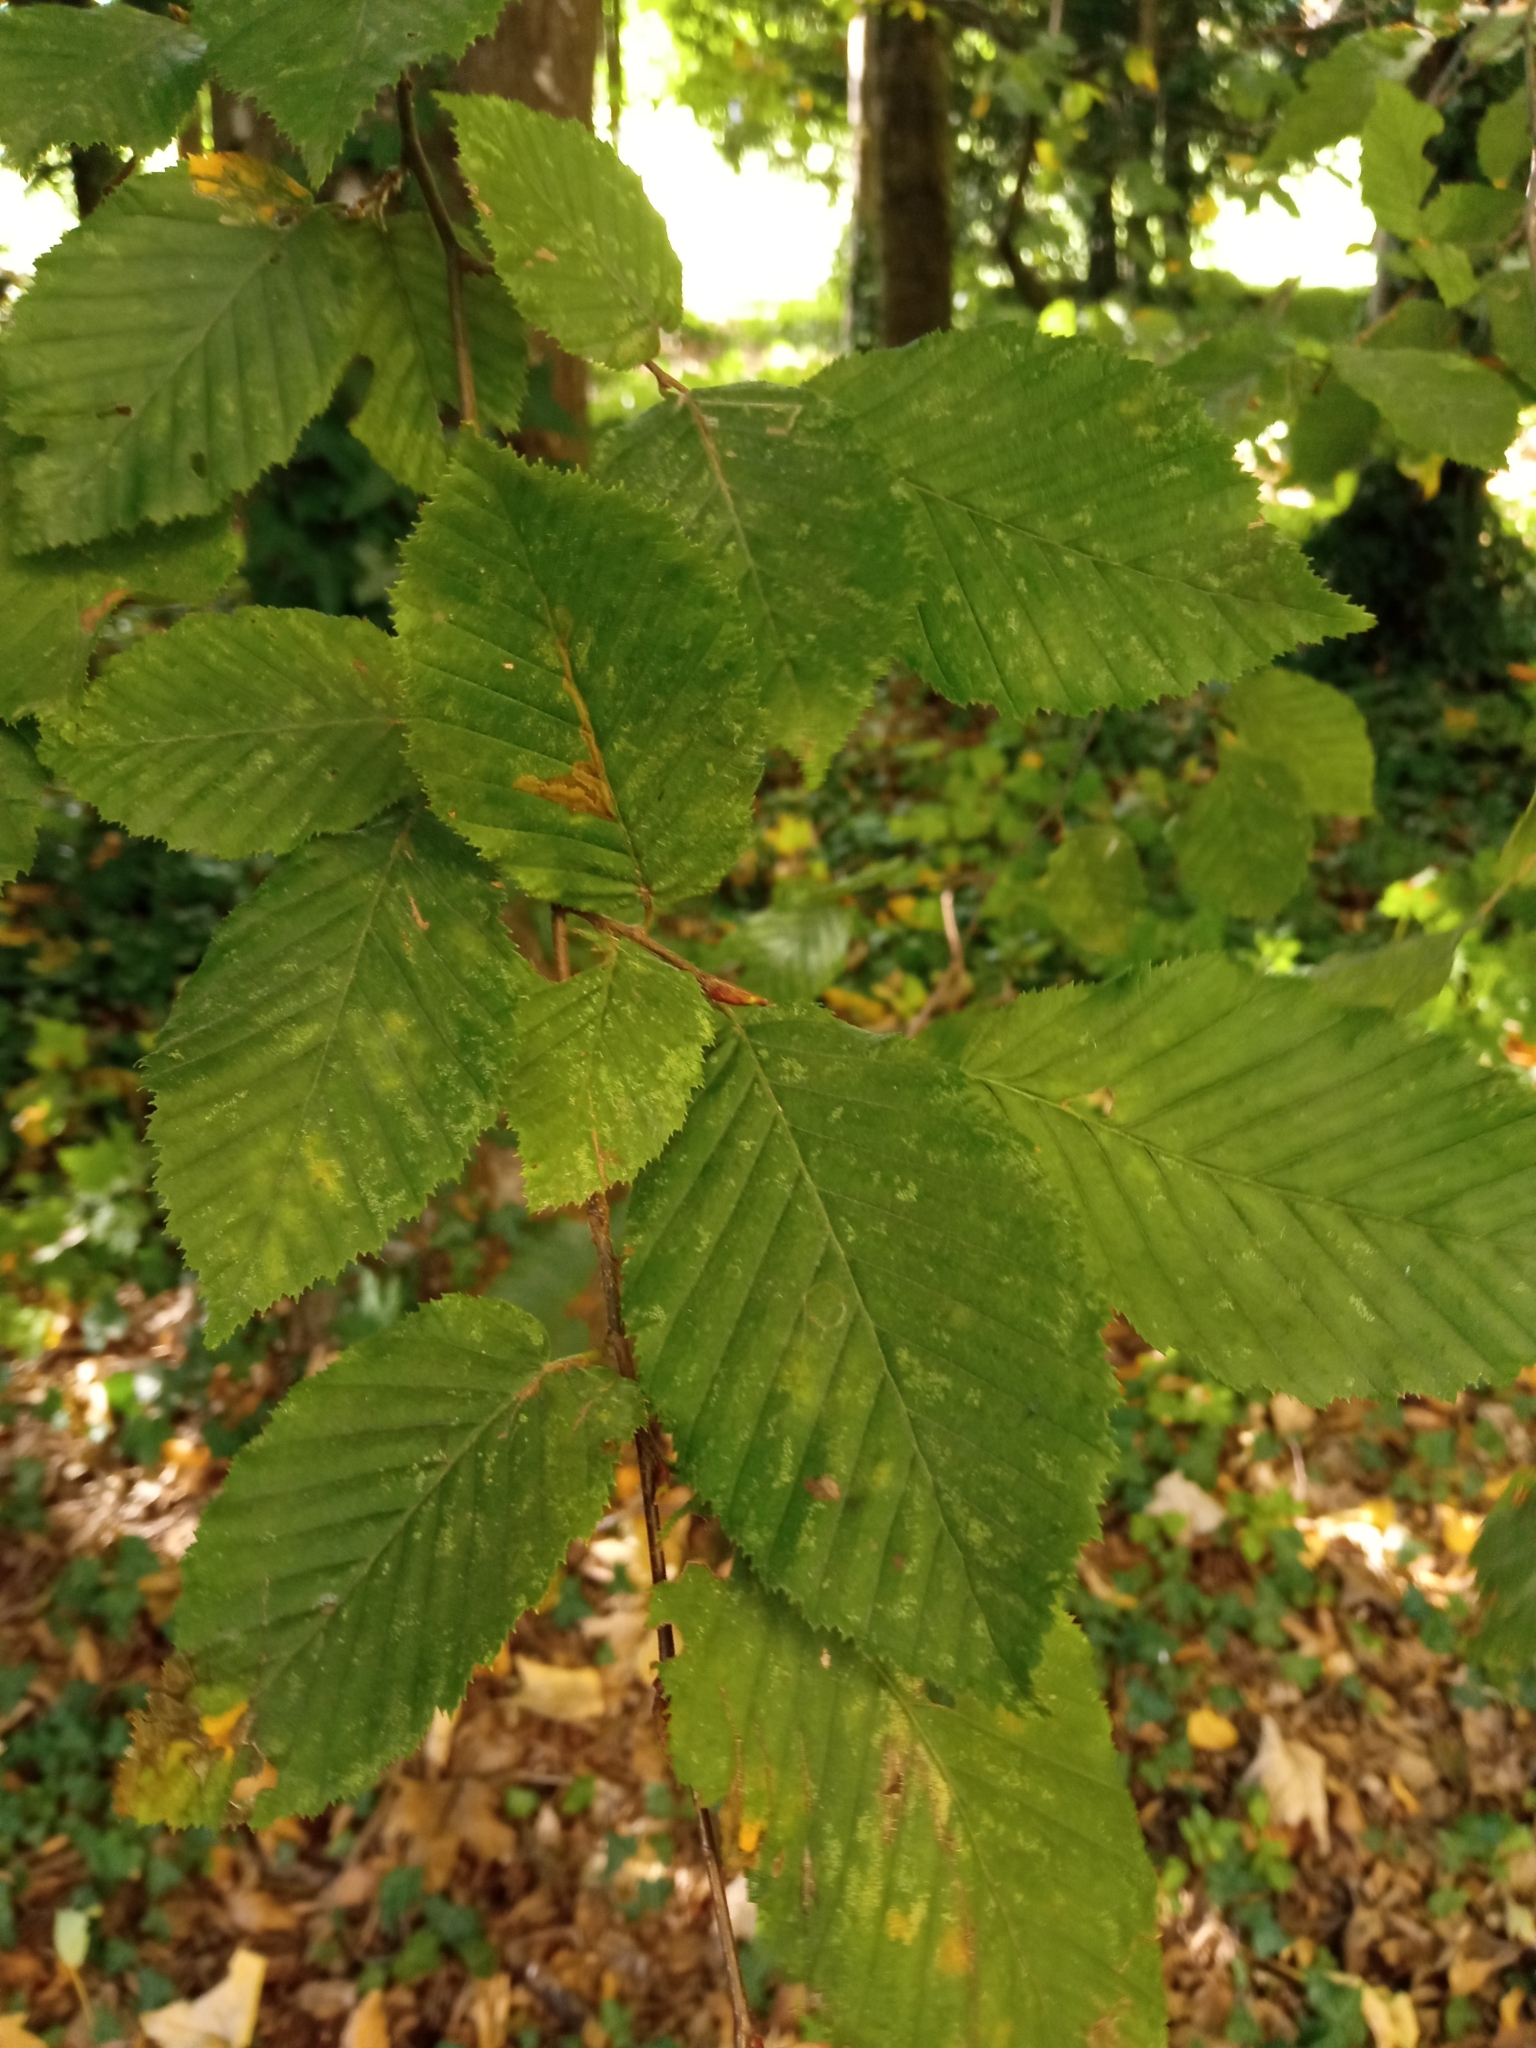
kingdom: Plantae
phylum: Tracheophyta
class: Magnoliopsida
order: Fagales
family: Betulaceae
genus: Carpinus
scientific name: Carpinus betulus
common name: Hornbeam
